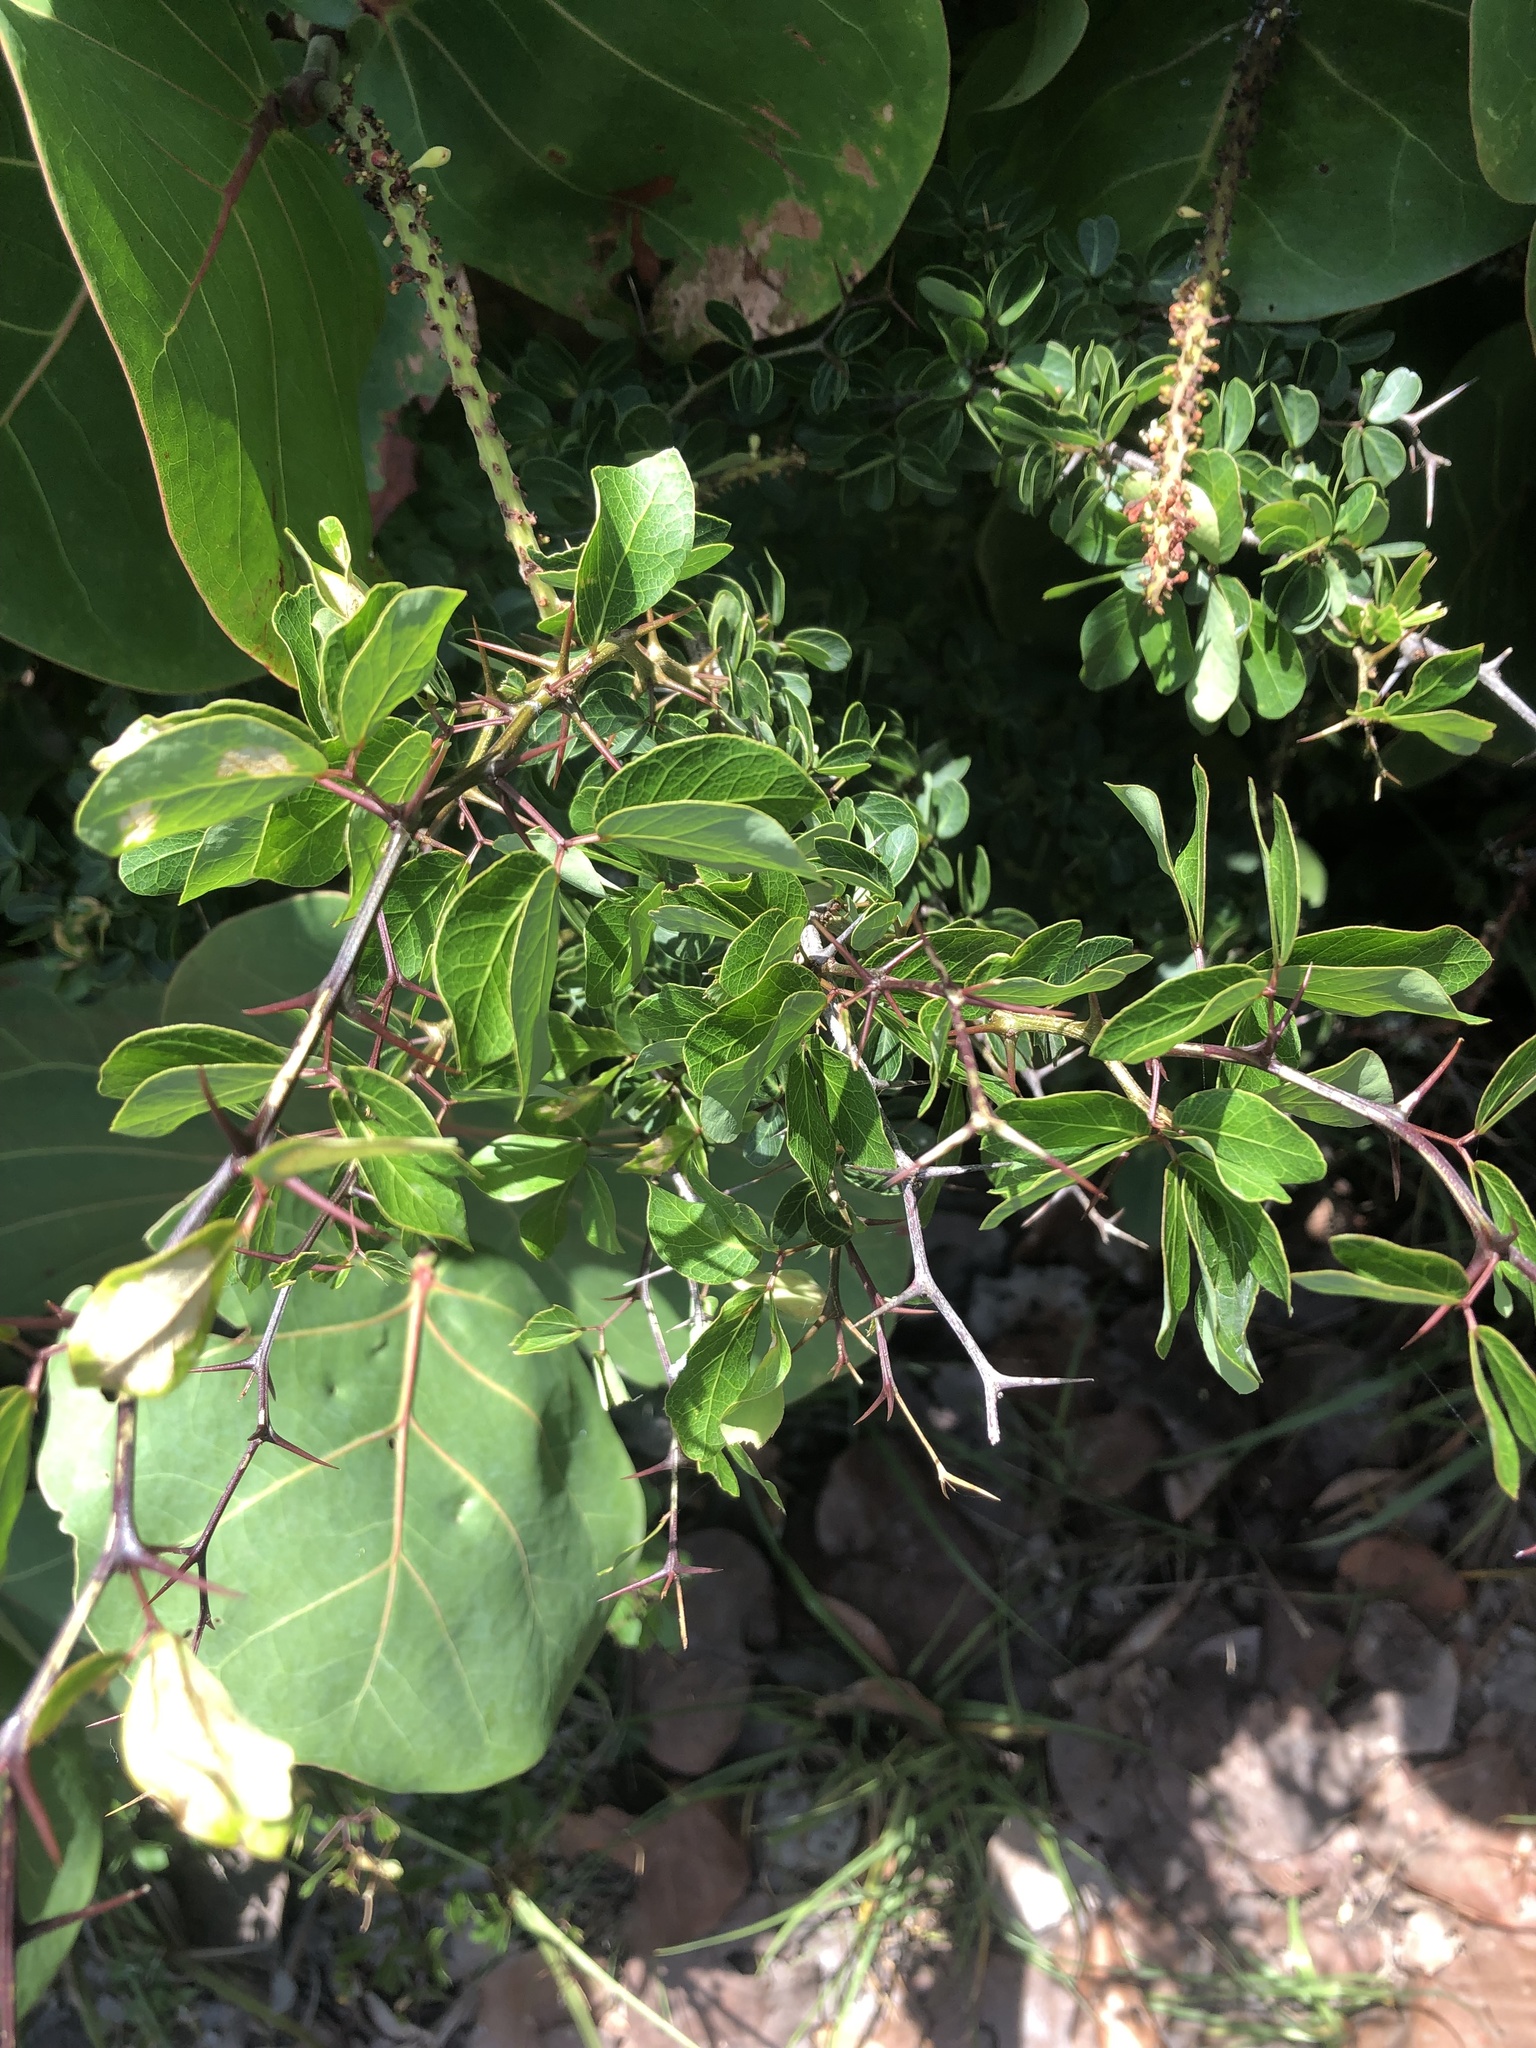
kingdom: Plantae
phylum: Tracheophyta
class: Magnoliopsida
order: Fabales
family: Fabaceae
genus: Pithecellobium
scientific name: Pithecellobium dulce
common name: Monkeypod
